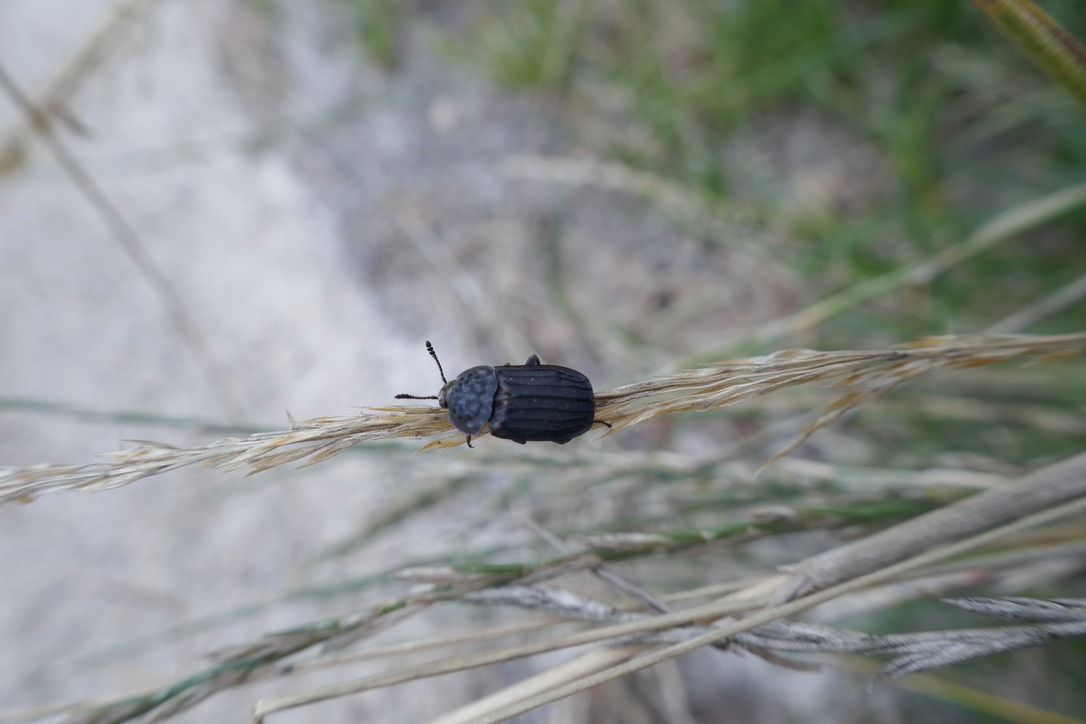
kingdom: Animalia
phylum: Arthropoda
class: Insecta
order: Coleoptera
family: Staphylinidae
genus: Thanatophilus
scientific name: Thanatophilus sinuatus
